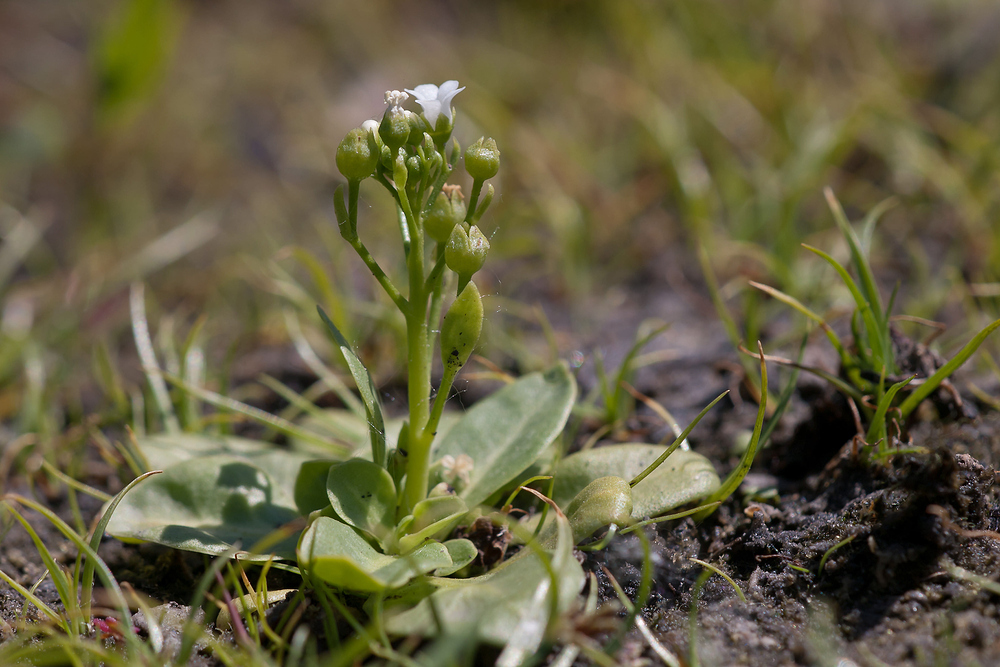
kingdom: Plantae
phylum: Tracheophyta
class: Magnoliopsida
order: Ericales
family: Primulaceae
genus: Samolus
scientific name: Samolus valerandi
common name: Brookweed
